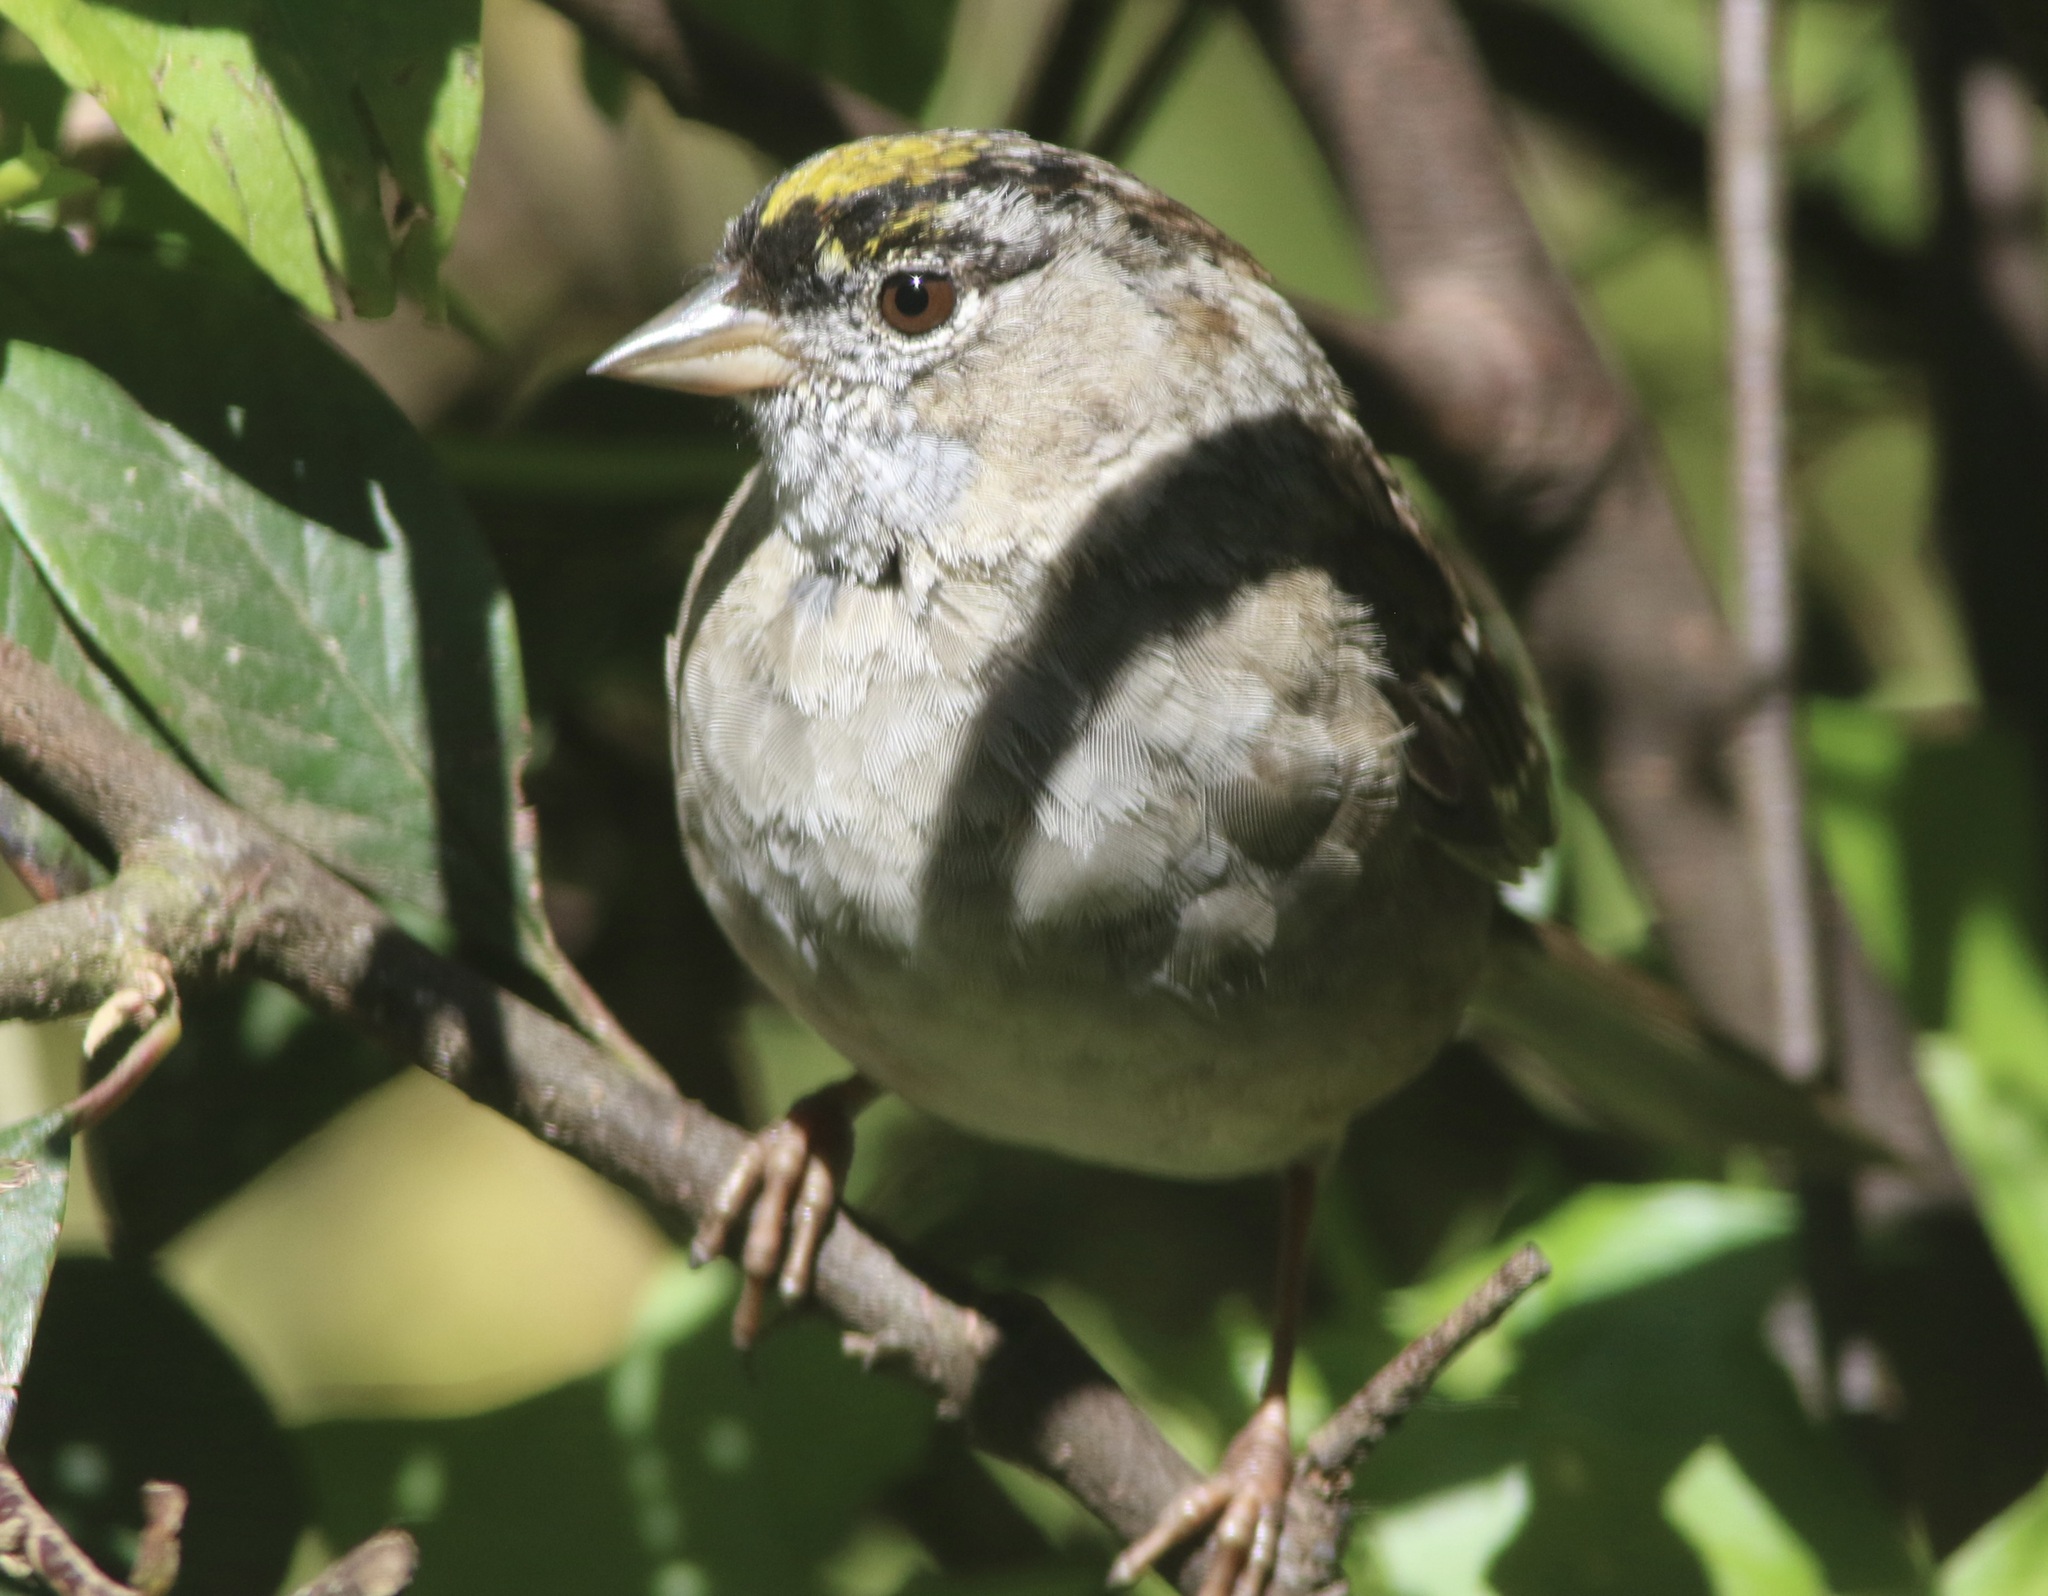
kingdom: Animalia
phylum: Chordata
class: Aves
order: Passeriformes
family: Passerellidae
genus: Zonotrichia
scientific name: Zonotrichia atricapilla
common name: Golden-crowned sparrow
